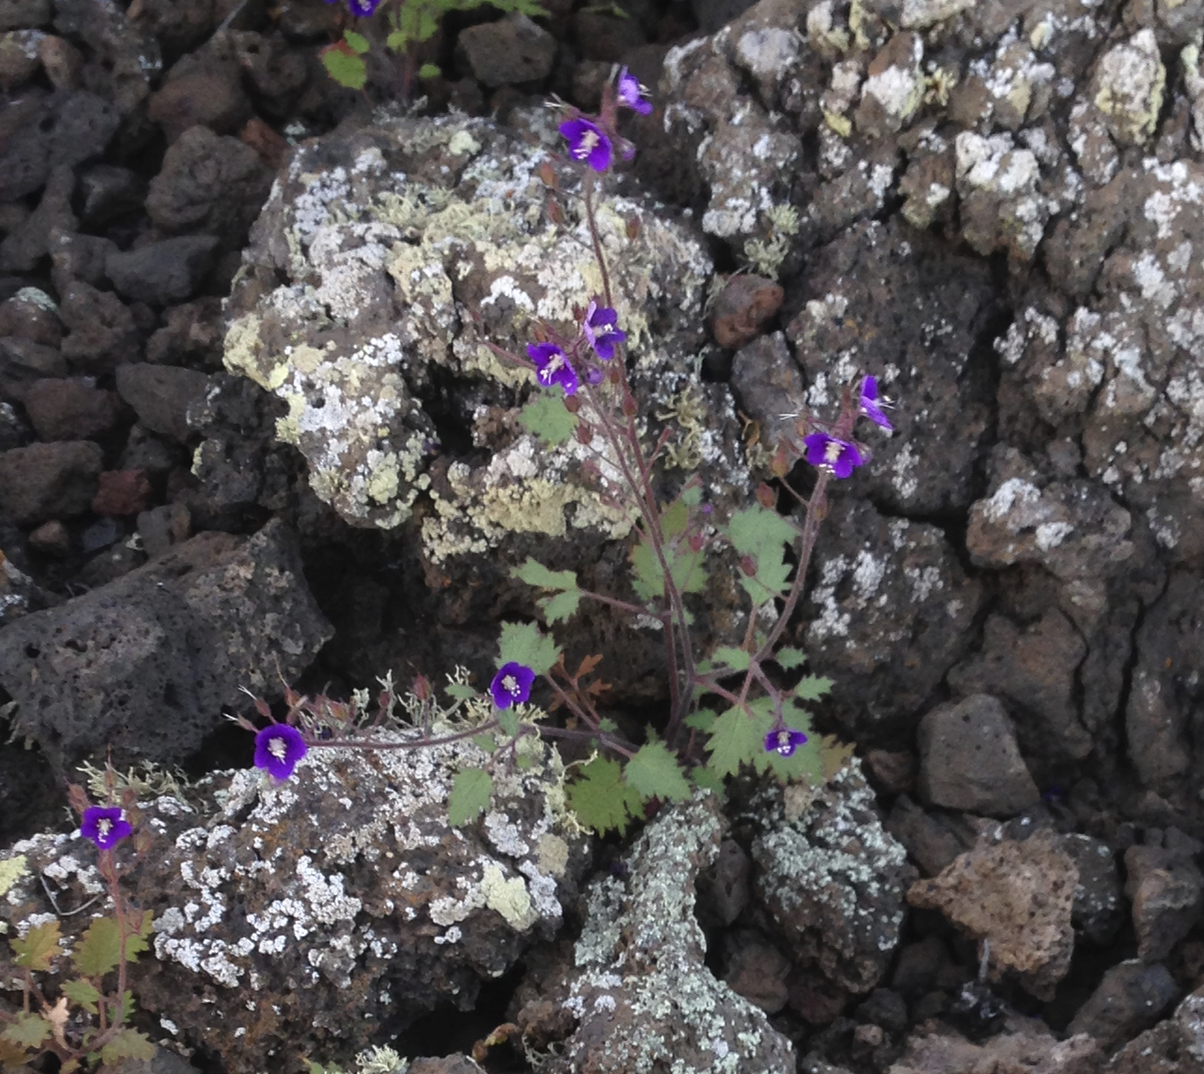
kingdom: Plantae
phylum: Tracheophyta
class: Magnoliopsida
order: Boraginales
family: Hydrophyllaceae
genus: Phacelia
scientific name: Phacelia parryi
